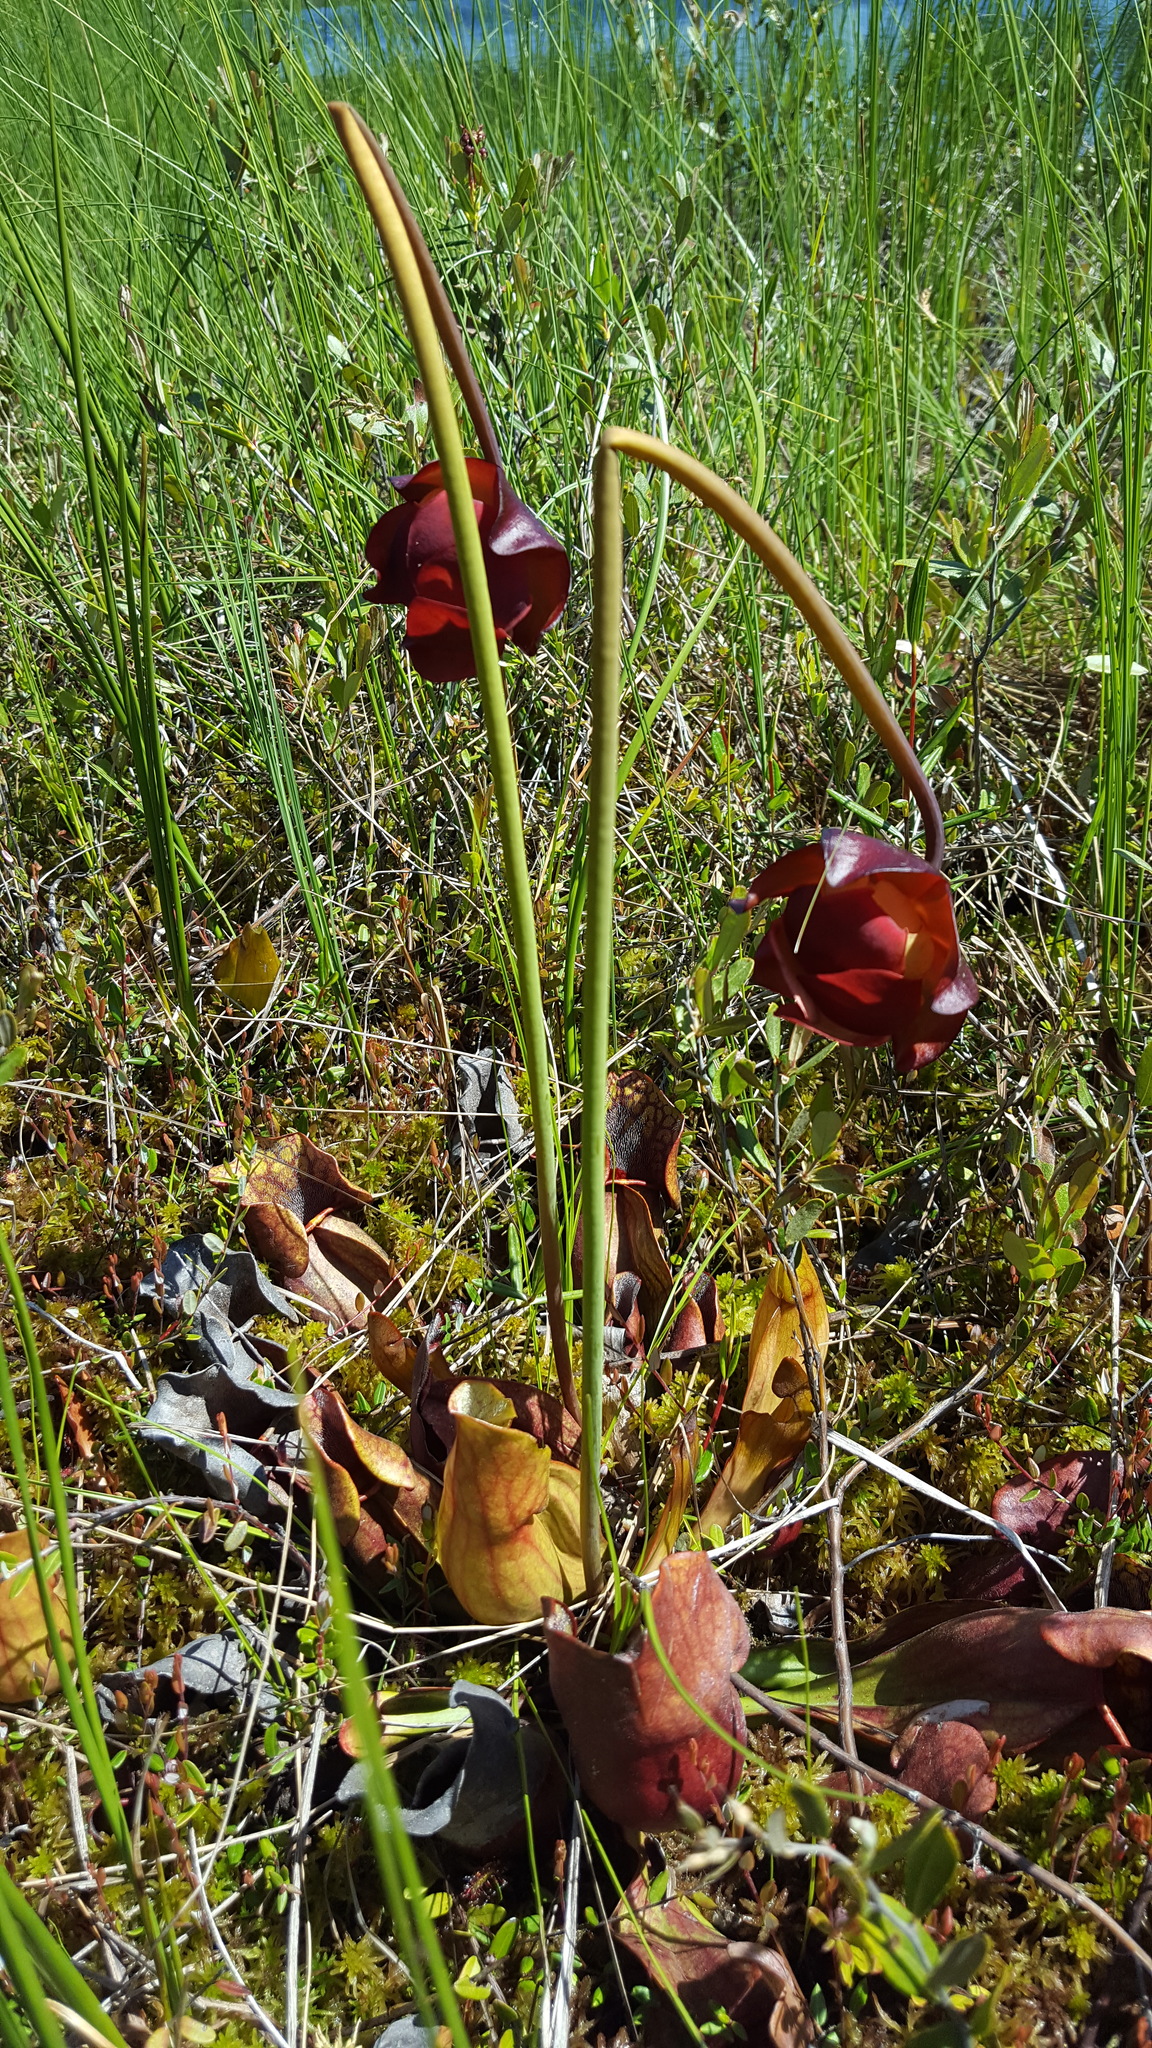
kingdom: Plantae
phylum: Tracheophyta
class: Magnoliopsida
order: Ericales
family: Sarraceniaceae
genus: Sarracenia
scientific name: Sarracenia purpurea
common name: Pitcherplant
